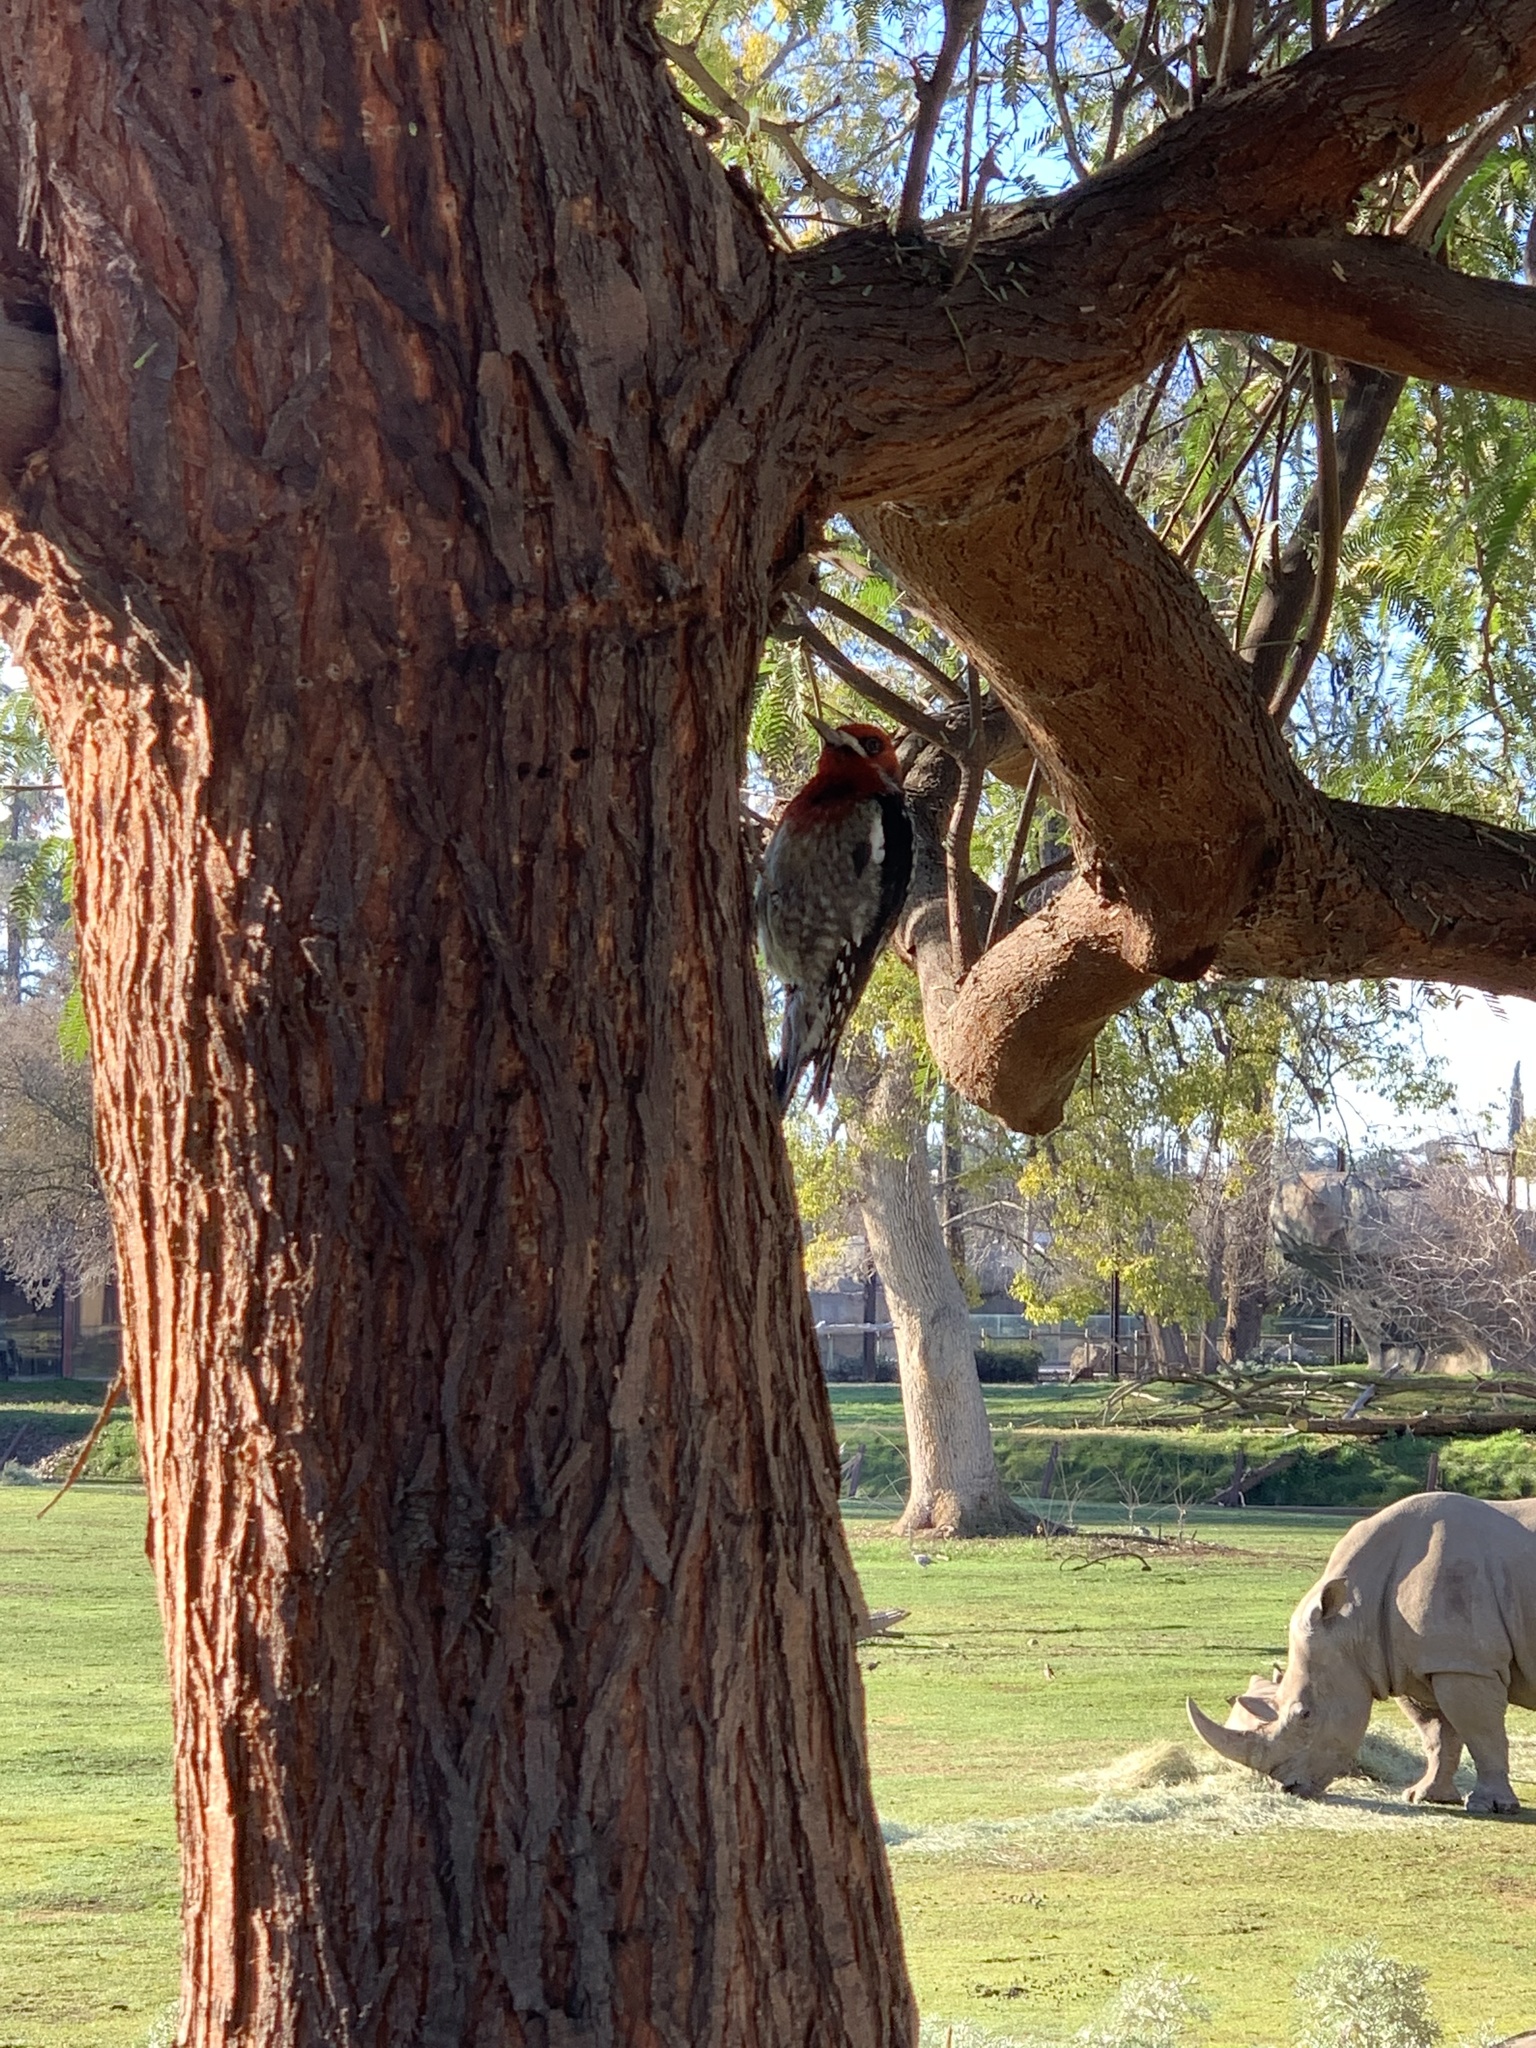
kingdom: Animalia
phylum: Chordata
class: Aves
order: Piciformes
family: Picidae
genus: Sphyrapicus
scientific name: Sphyrapicus ruber
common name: Red-breasted sapsucker
